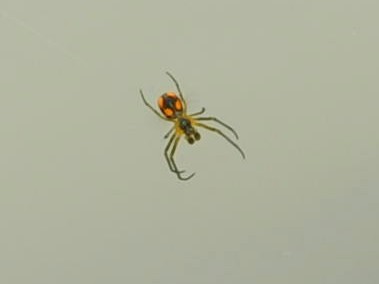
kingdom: Animalia
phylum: Arthropoda
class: Arachnida
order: Araneae
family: Tetragnathidae
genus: Leucauge
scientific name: Leucauge fastigata
